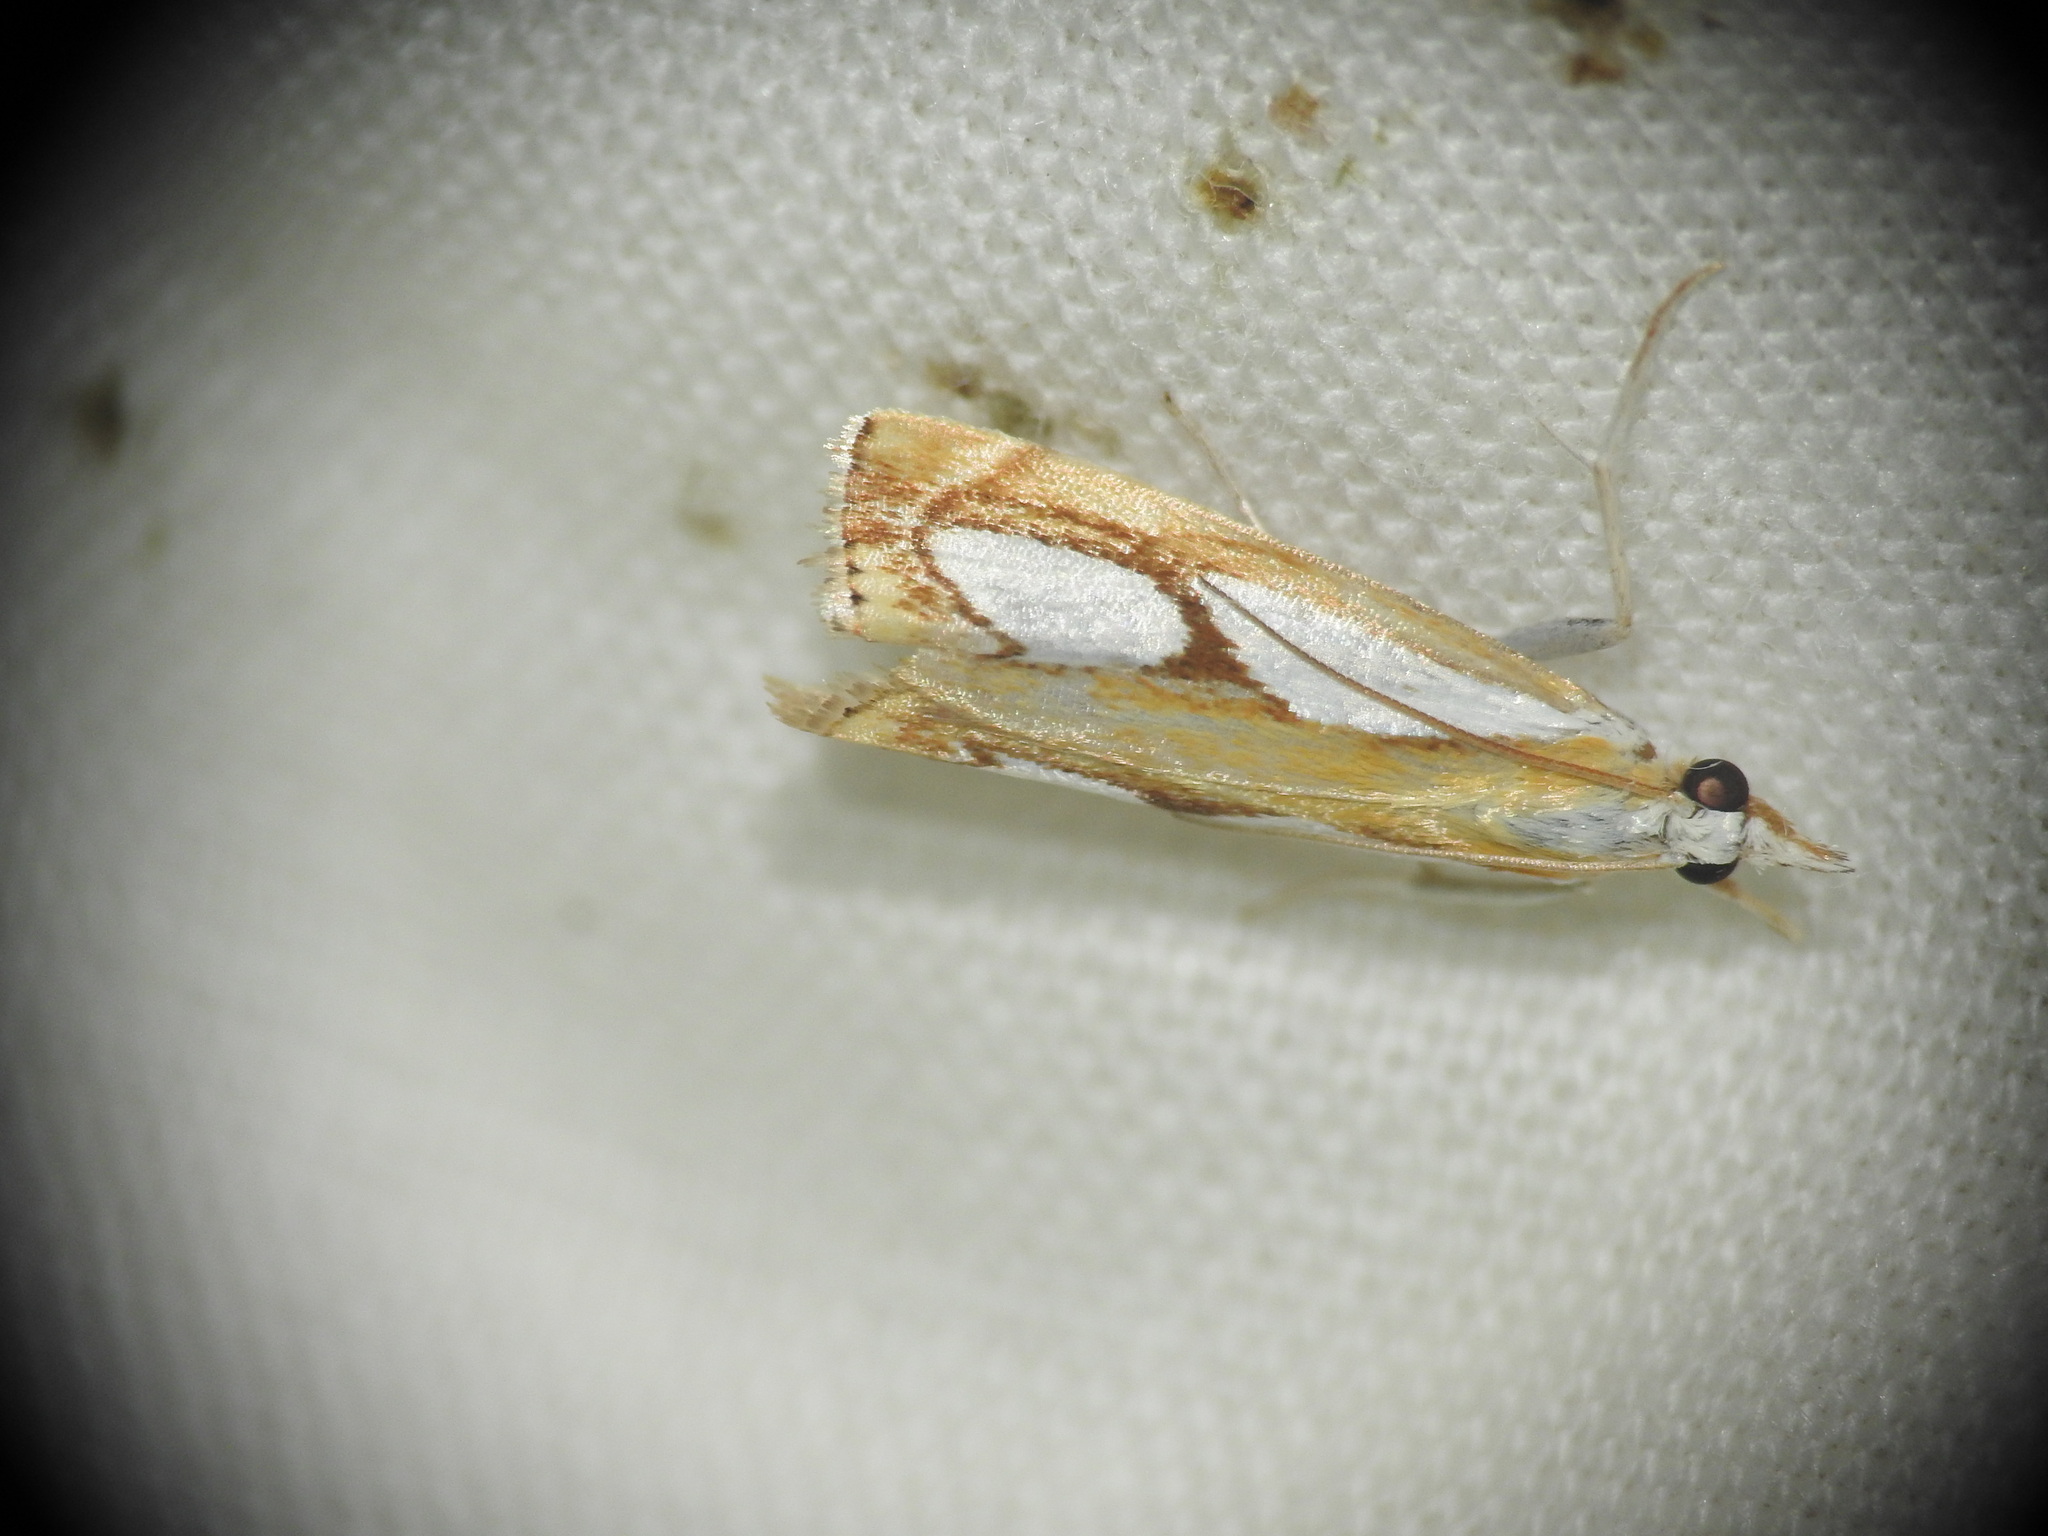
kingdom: Animalia
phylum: Arthropoda
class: Insecta
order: Lepidoptera
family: Crambidae
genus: Catoptria
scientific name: Catoptria pinella
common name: Pearl grass-veneer
